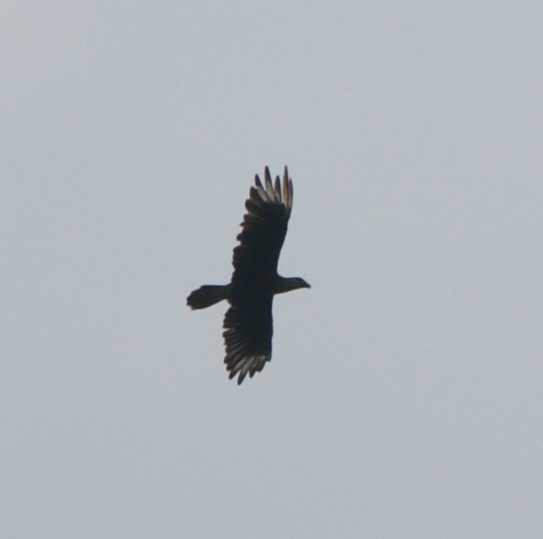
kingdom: Animalia
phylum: Chordata
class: Aves
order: Falconiformes
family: Falconidae
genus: Caracara
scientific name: Caracara plancus
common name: Southern caracara
